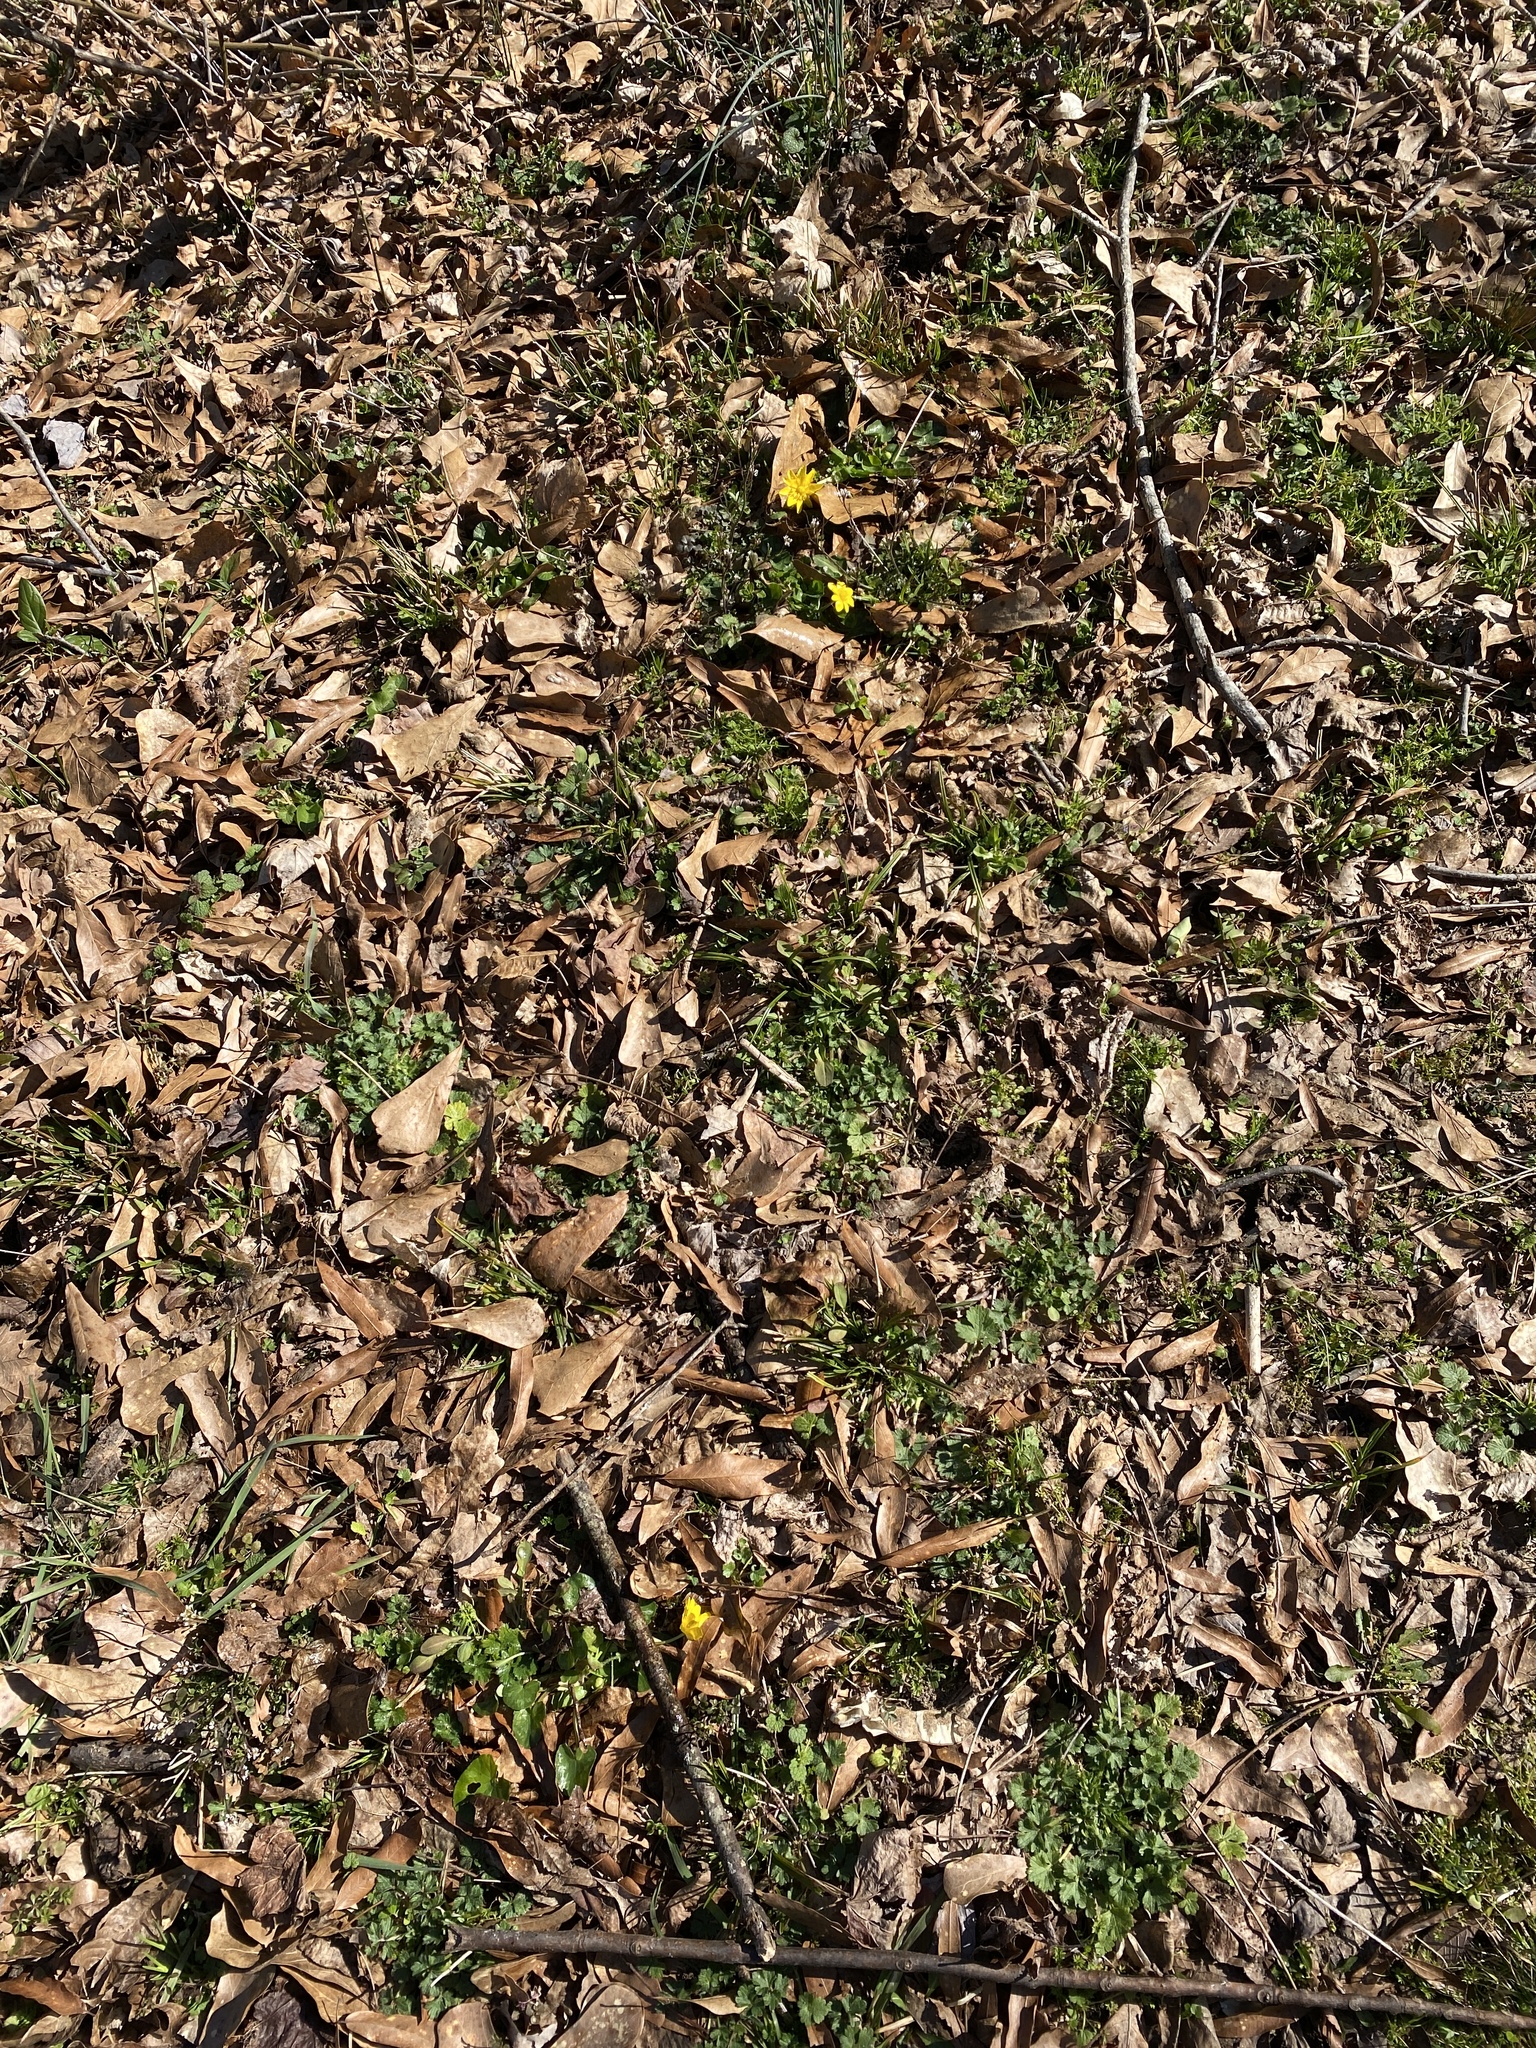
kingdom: Plantae
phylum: Tracheophyta
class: Magnoliopsida
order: Ranunculales
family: Ranunculaceae
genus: Ficaria
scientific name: Ficaria verna
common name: Lesser celandine
